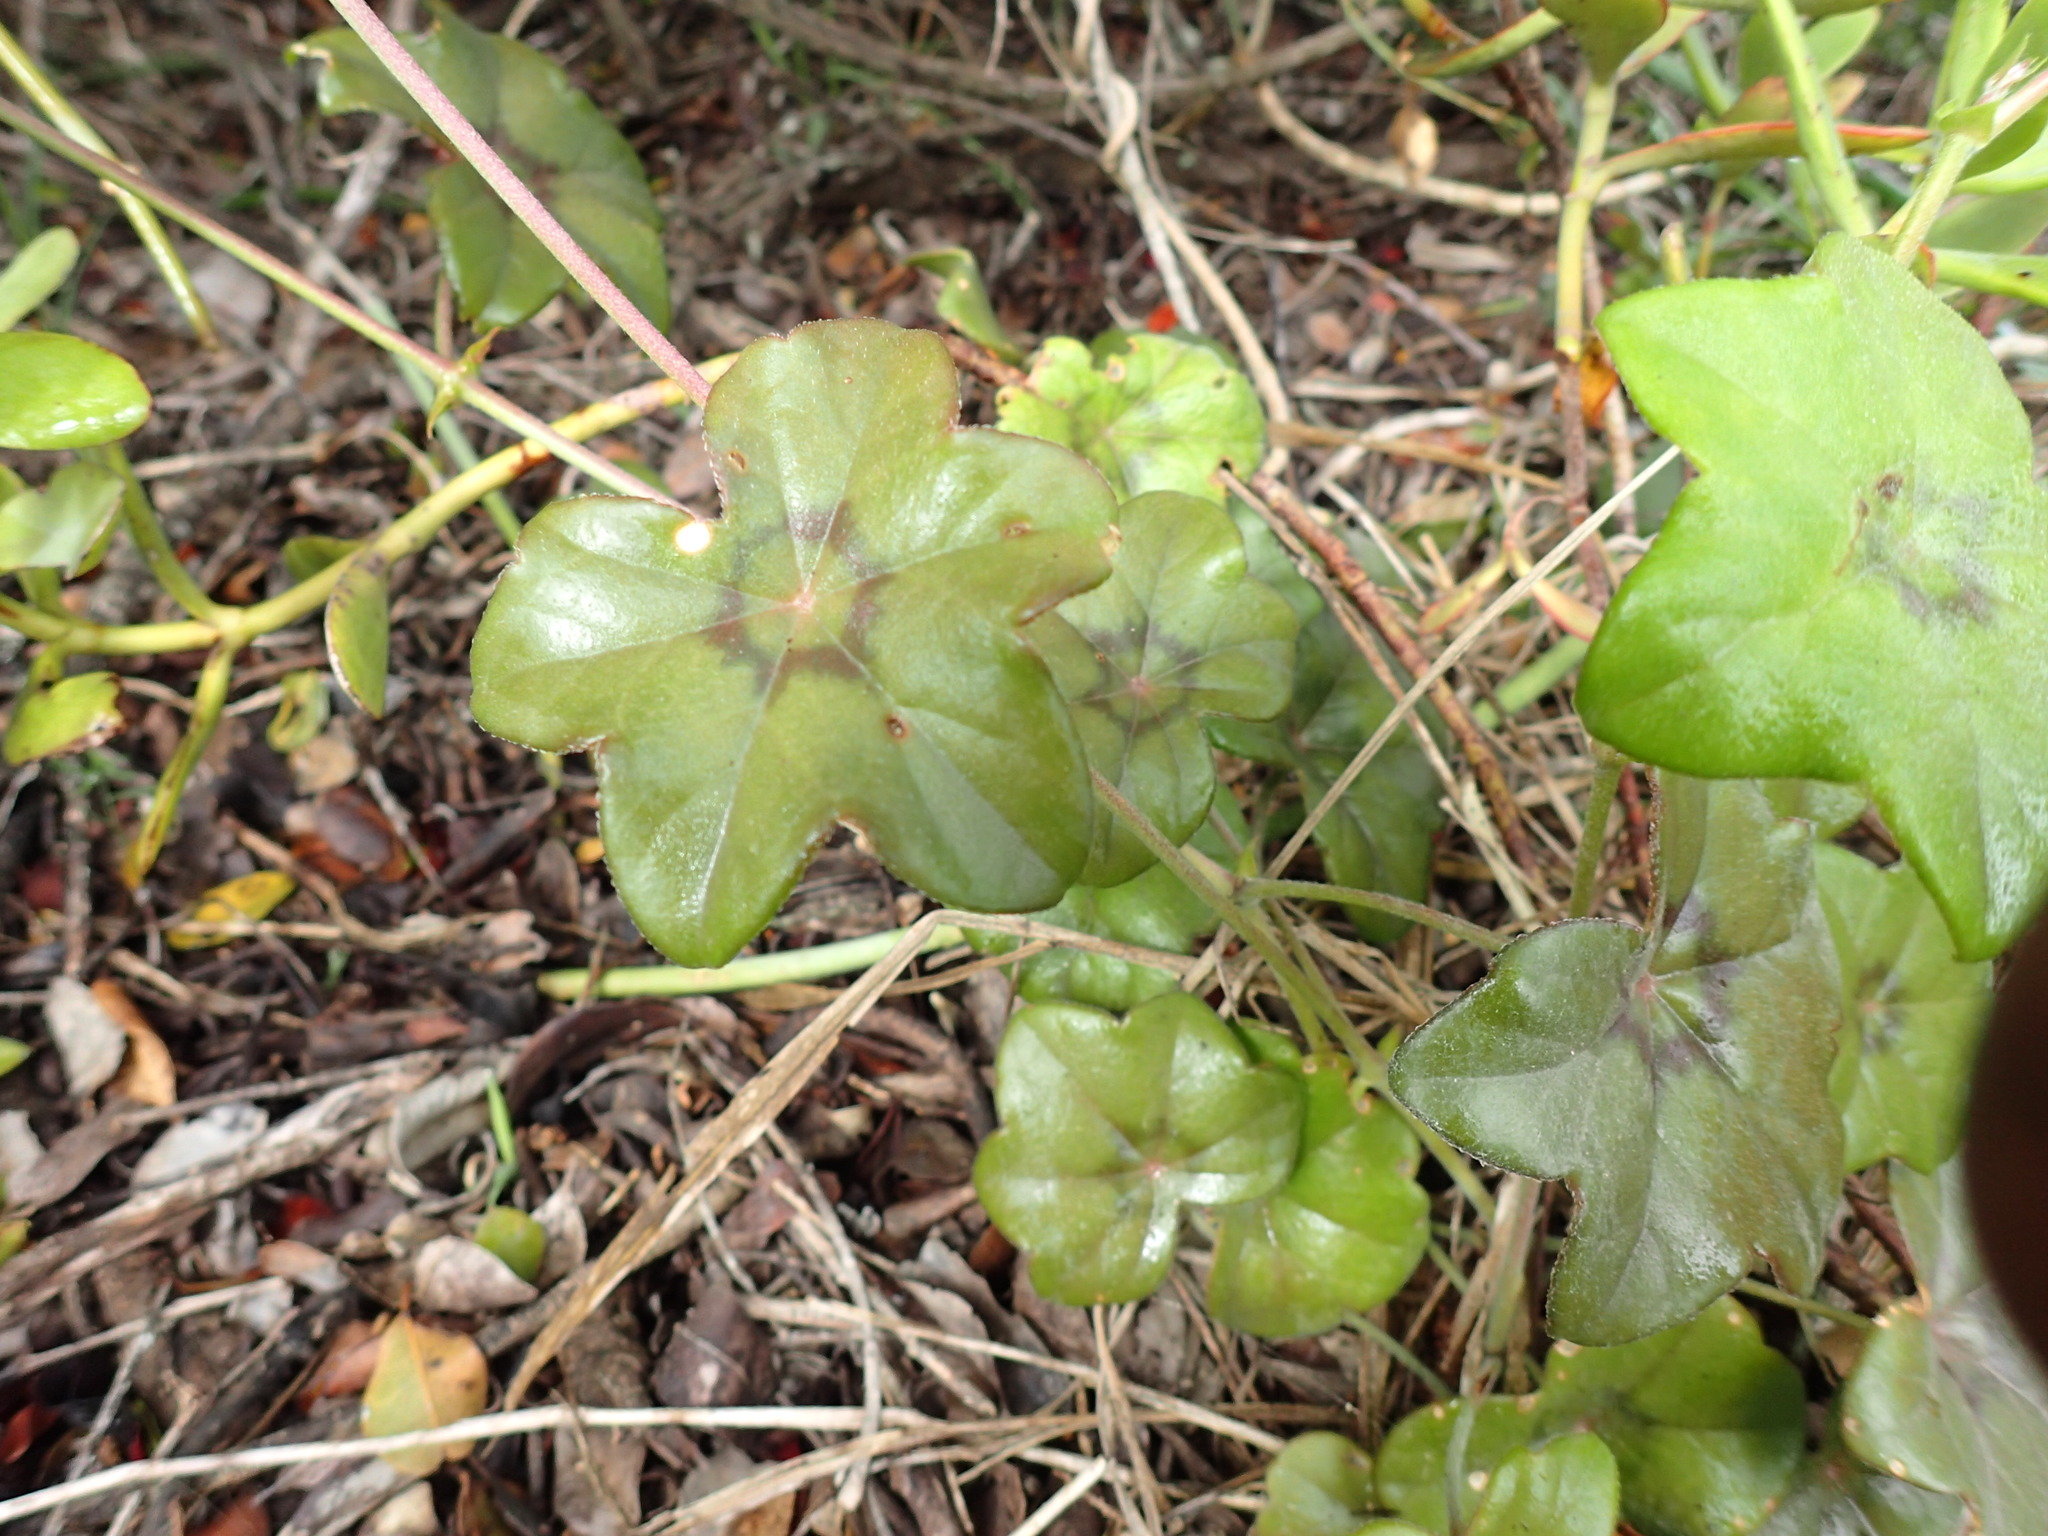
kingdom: Plantae
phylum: Tracheophyta
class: Magnoliopsida
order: Geraniales
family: Geraniaceae
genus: Pelargonium
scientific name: Pelargonium peltatum
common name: Ivyleaf geranium
